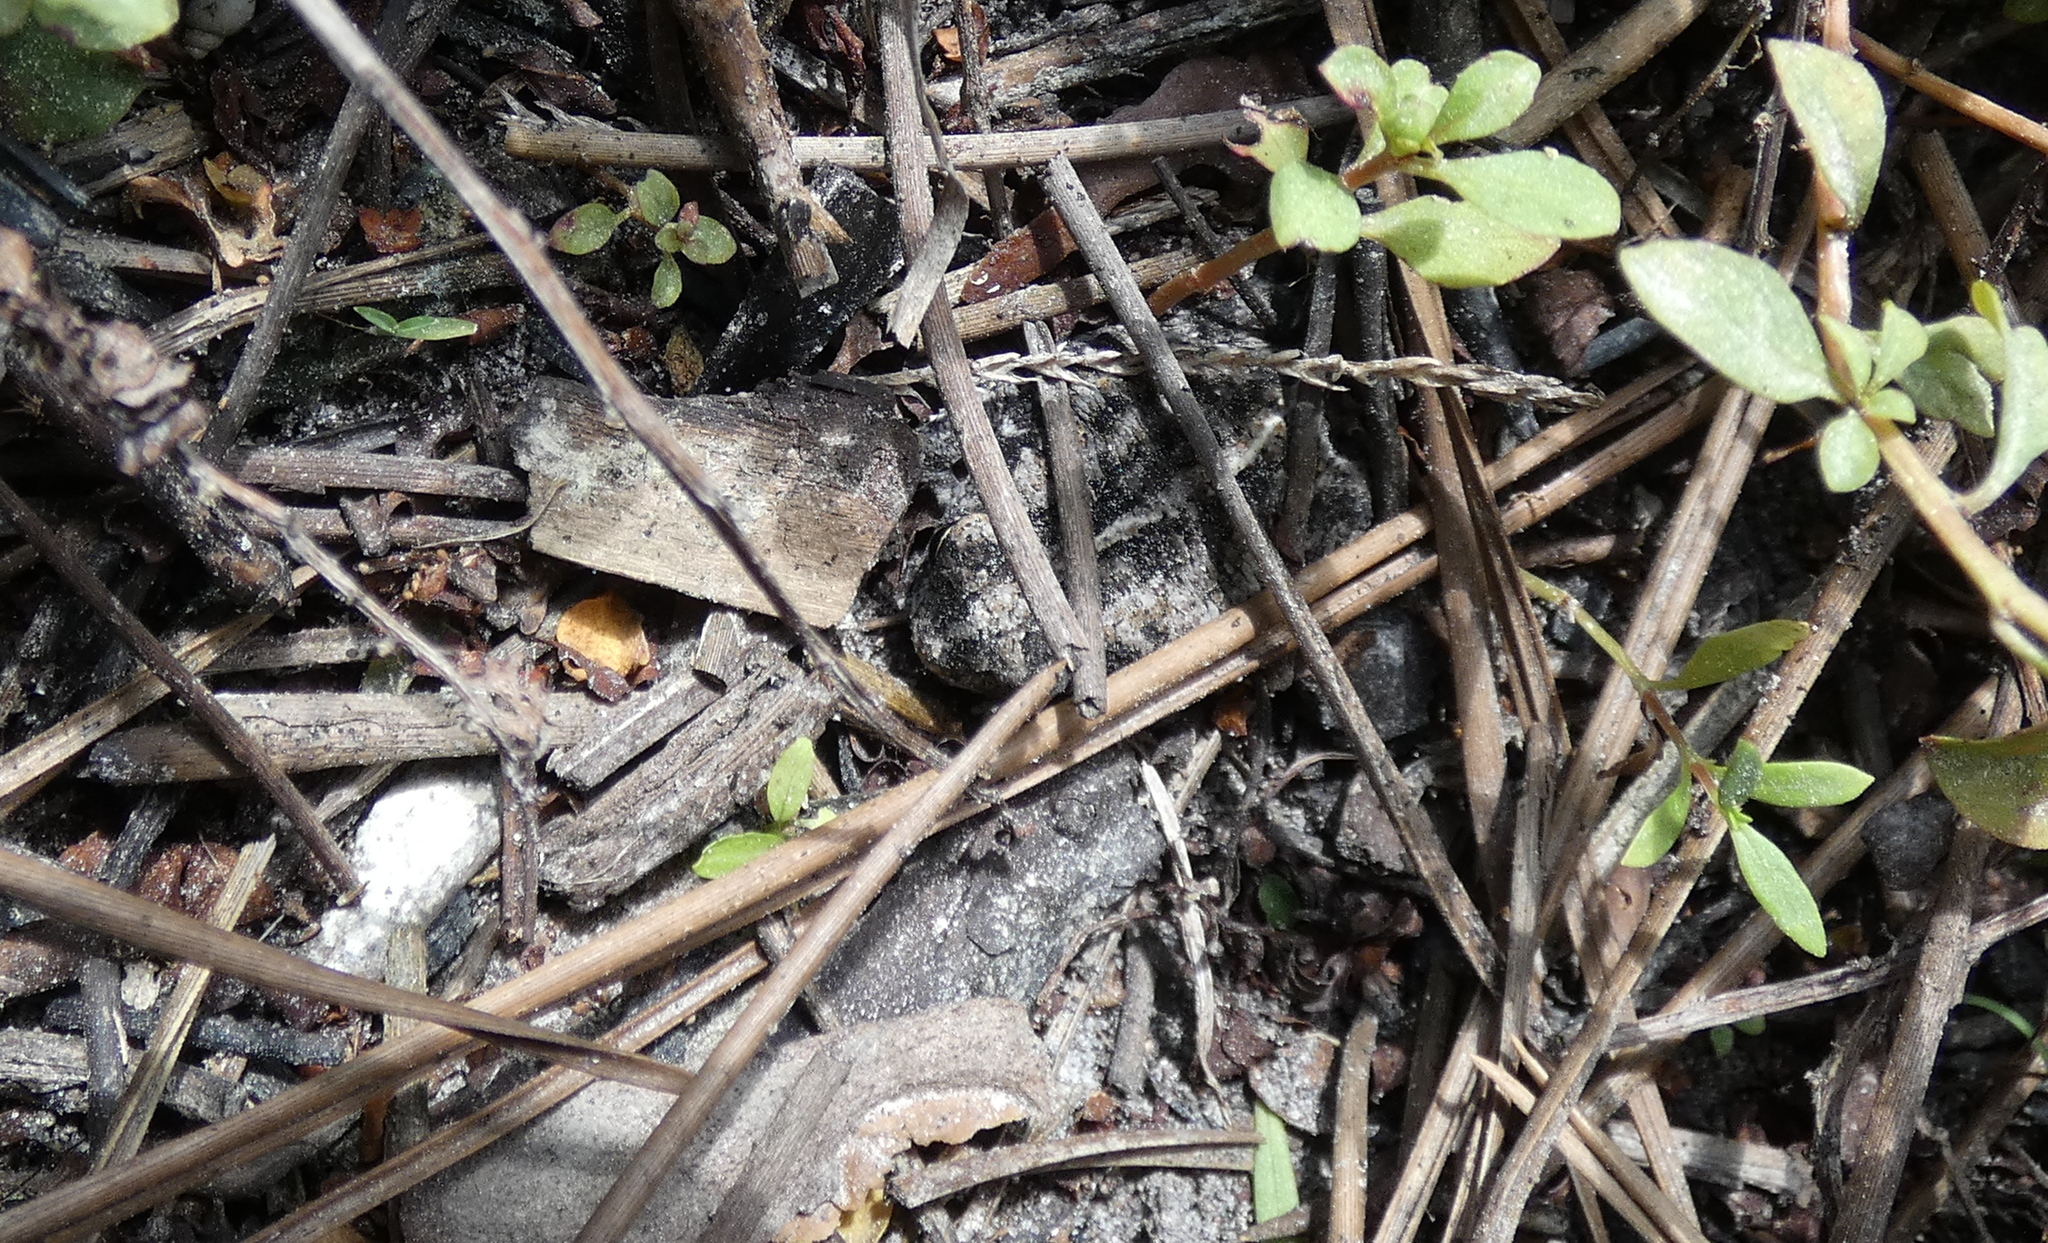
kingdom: Animalia
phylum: Chordata
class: Amphibia
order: Anura
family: Bufonidae
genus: Anaxyrus
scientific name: Anaxyrus quercicus
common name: Oak toad
